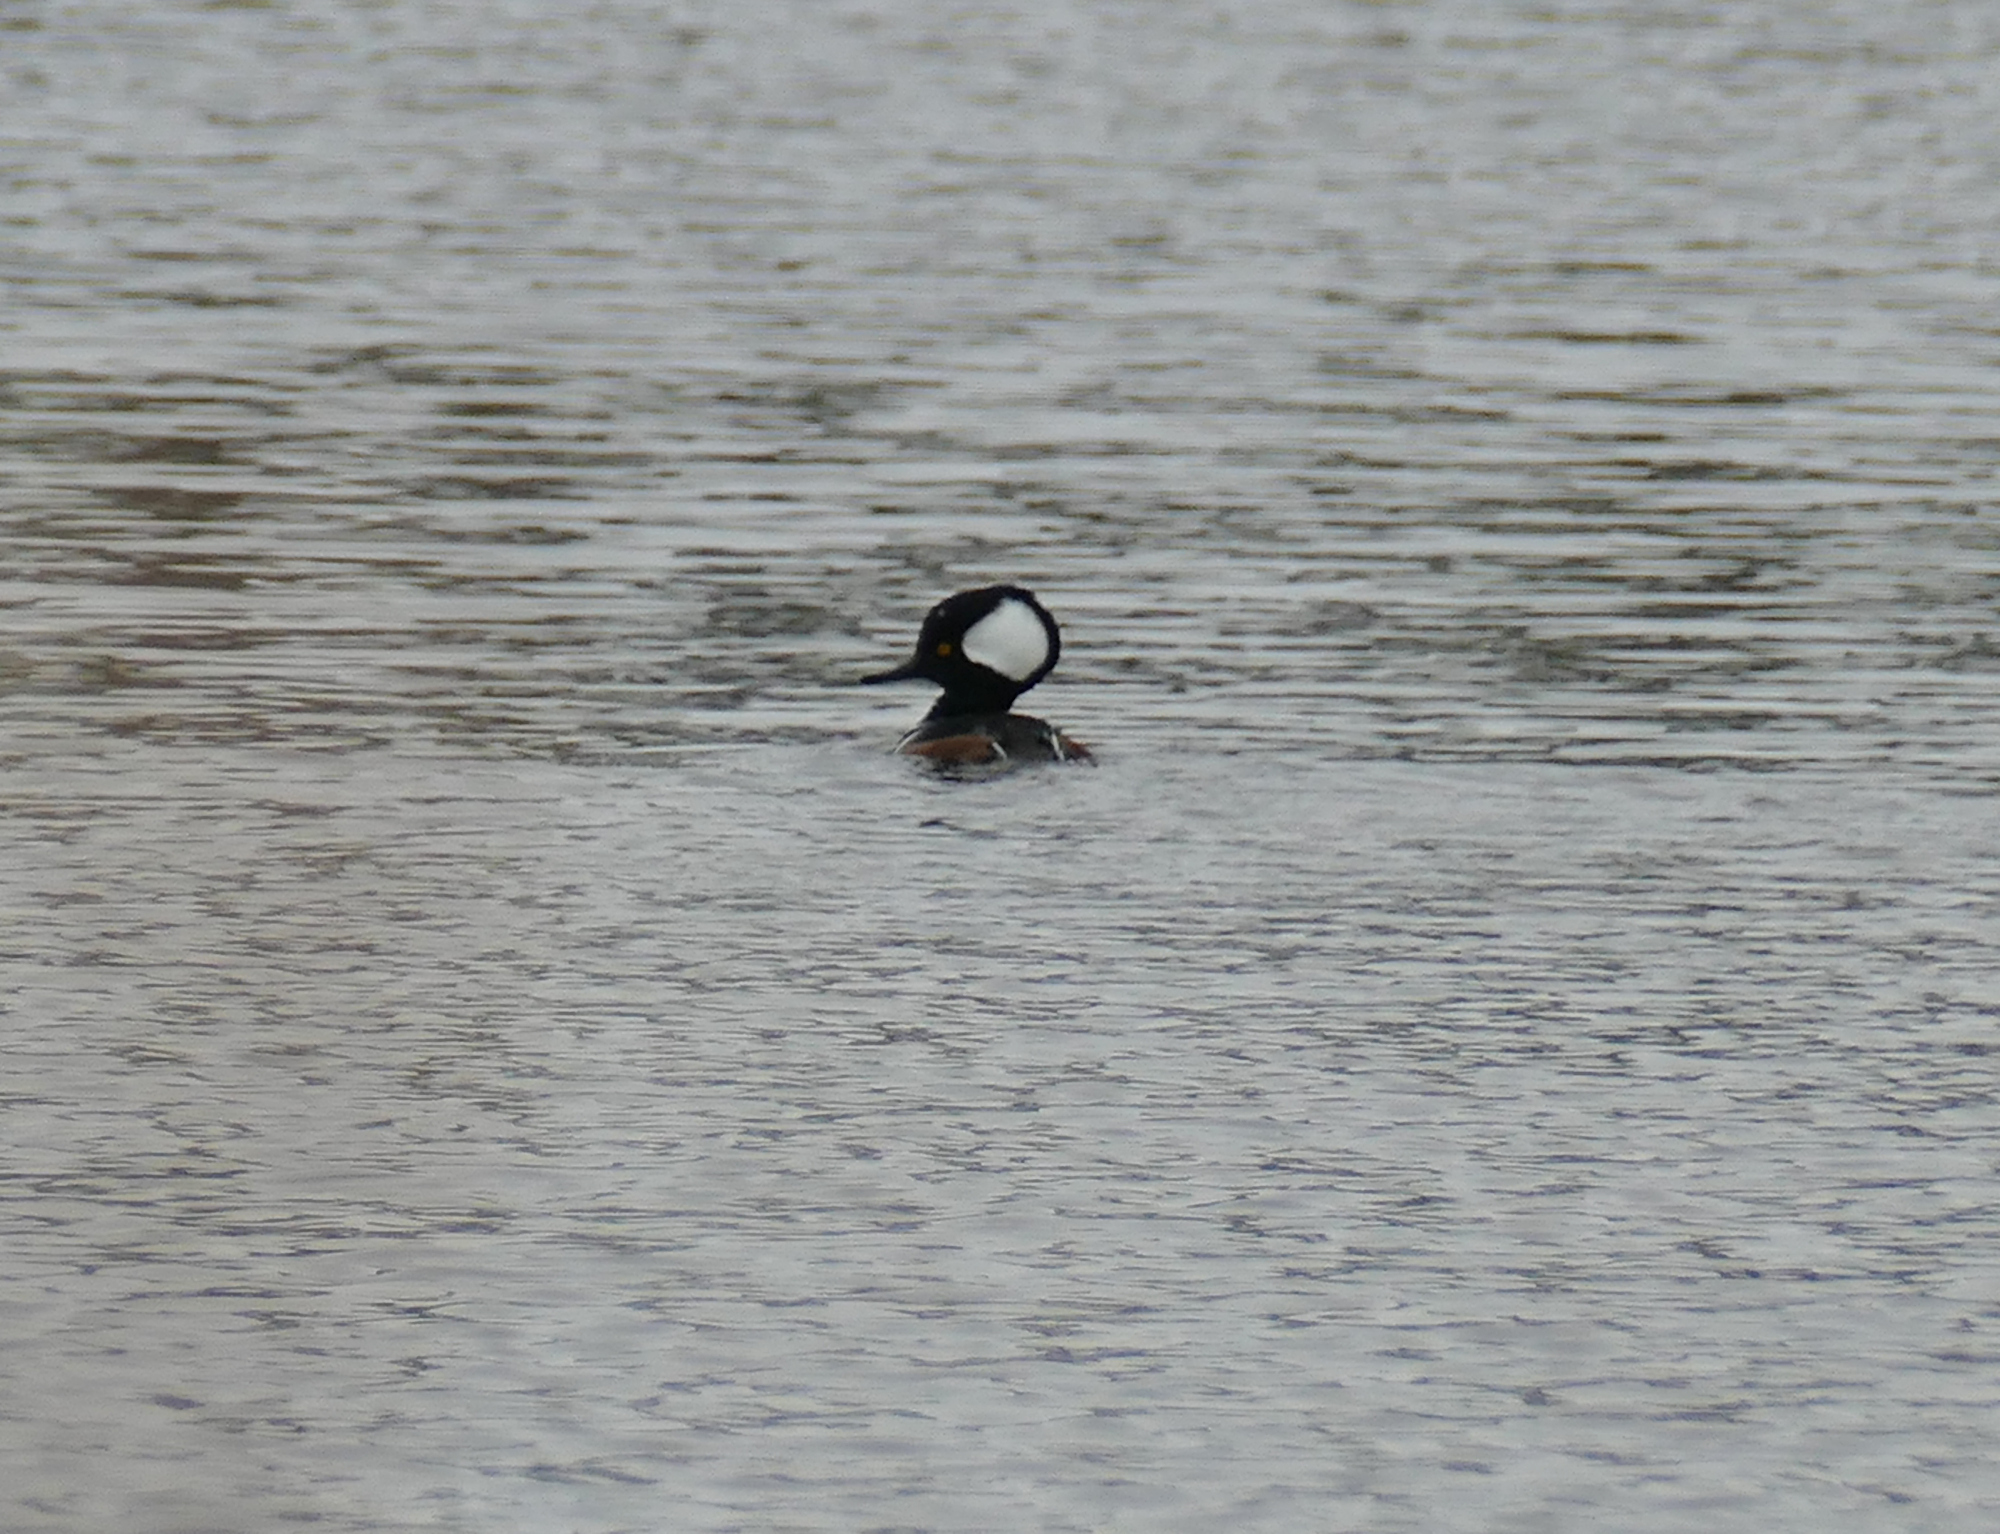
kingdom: Animalia
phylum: Chordata
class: Aves
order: Anseriformes
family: Anatidae
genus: Lophodytes
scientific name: Lophodytes cucullatus
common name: Hooded merganser
